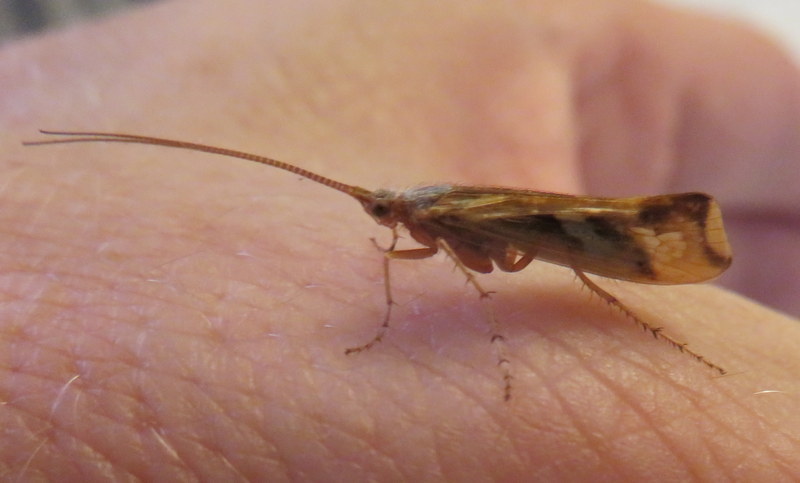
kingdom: Animalia
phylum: Arthropoda
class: Insecta
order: Trichoptera
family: Limnephilidae
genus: Limnephilus
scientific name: Limnephilus lunatus
